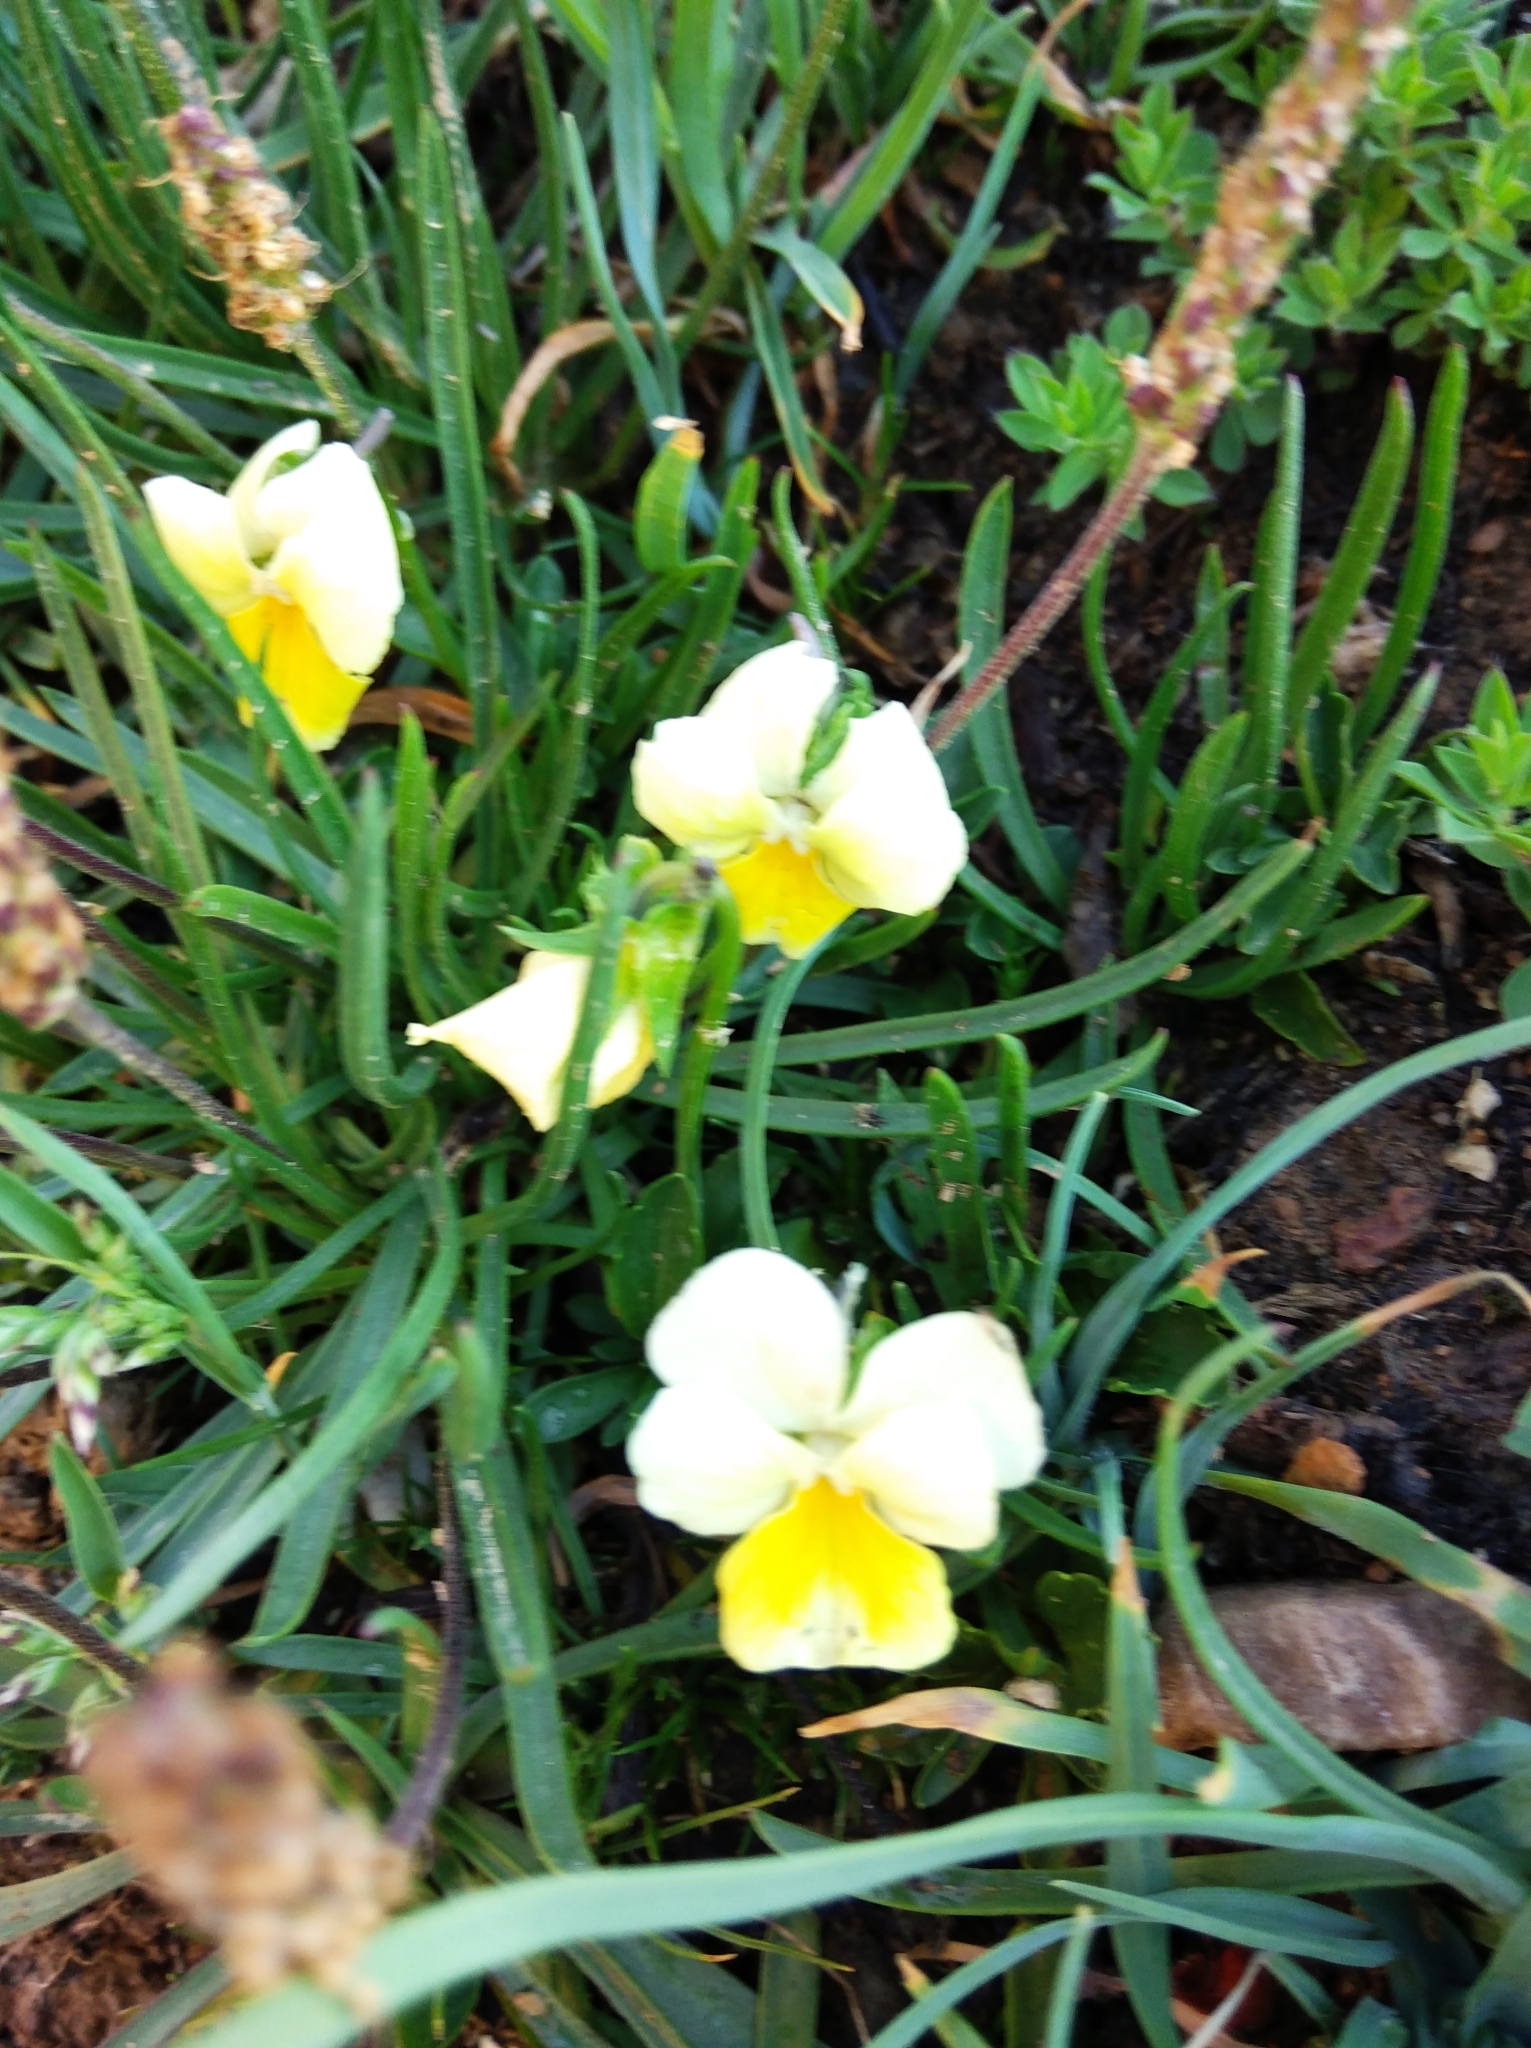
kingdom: Plantae
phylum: Tracheophyta
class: Magnoliopsida
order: Malpighiales
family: Violaceae
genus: Viola
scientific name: Viola calcarata
